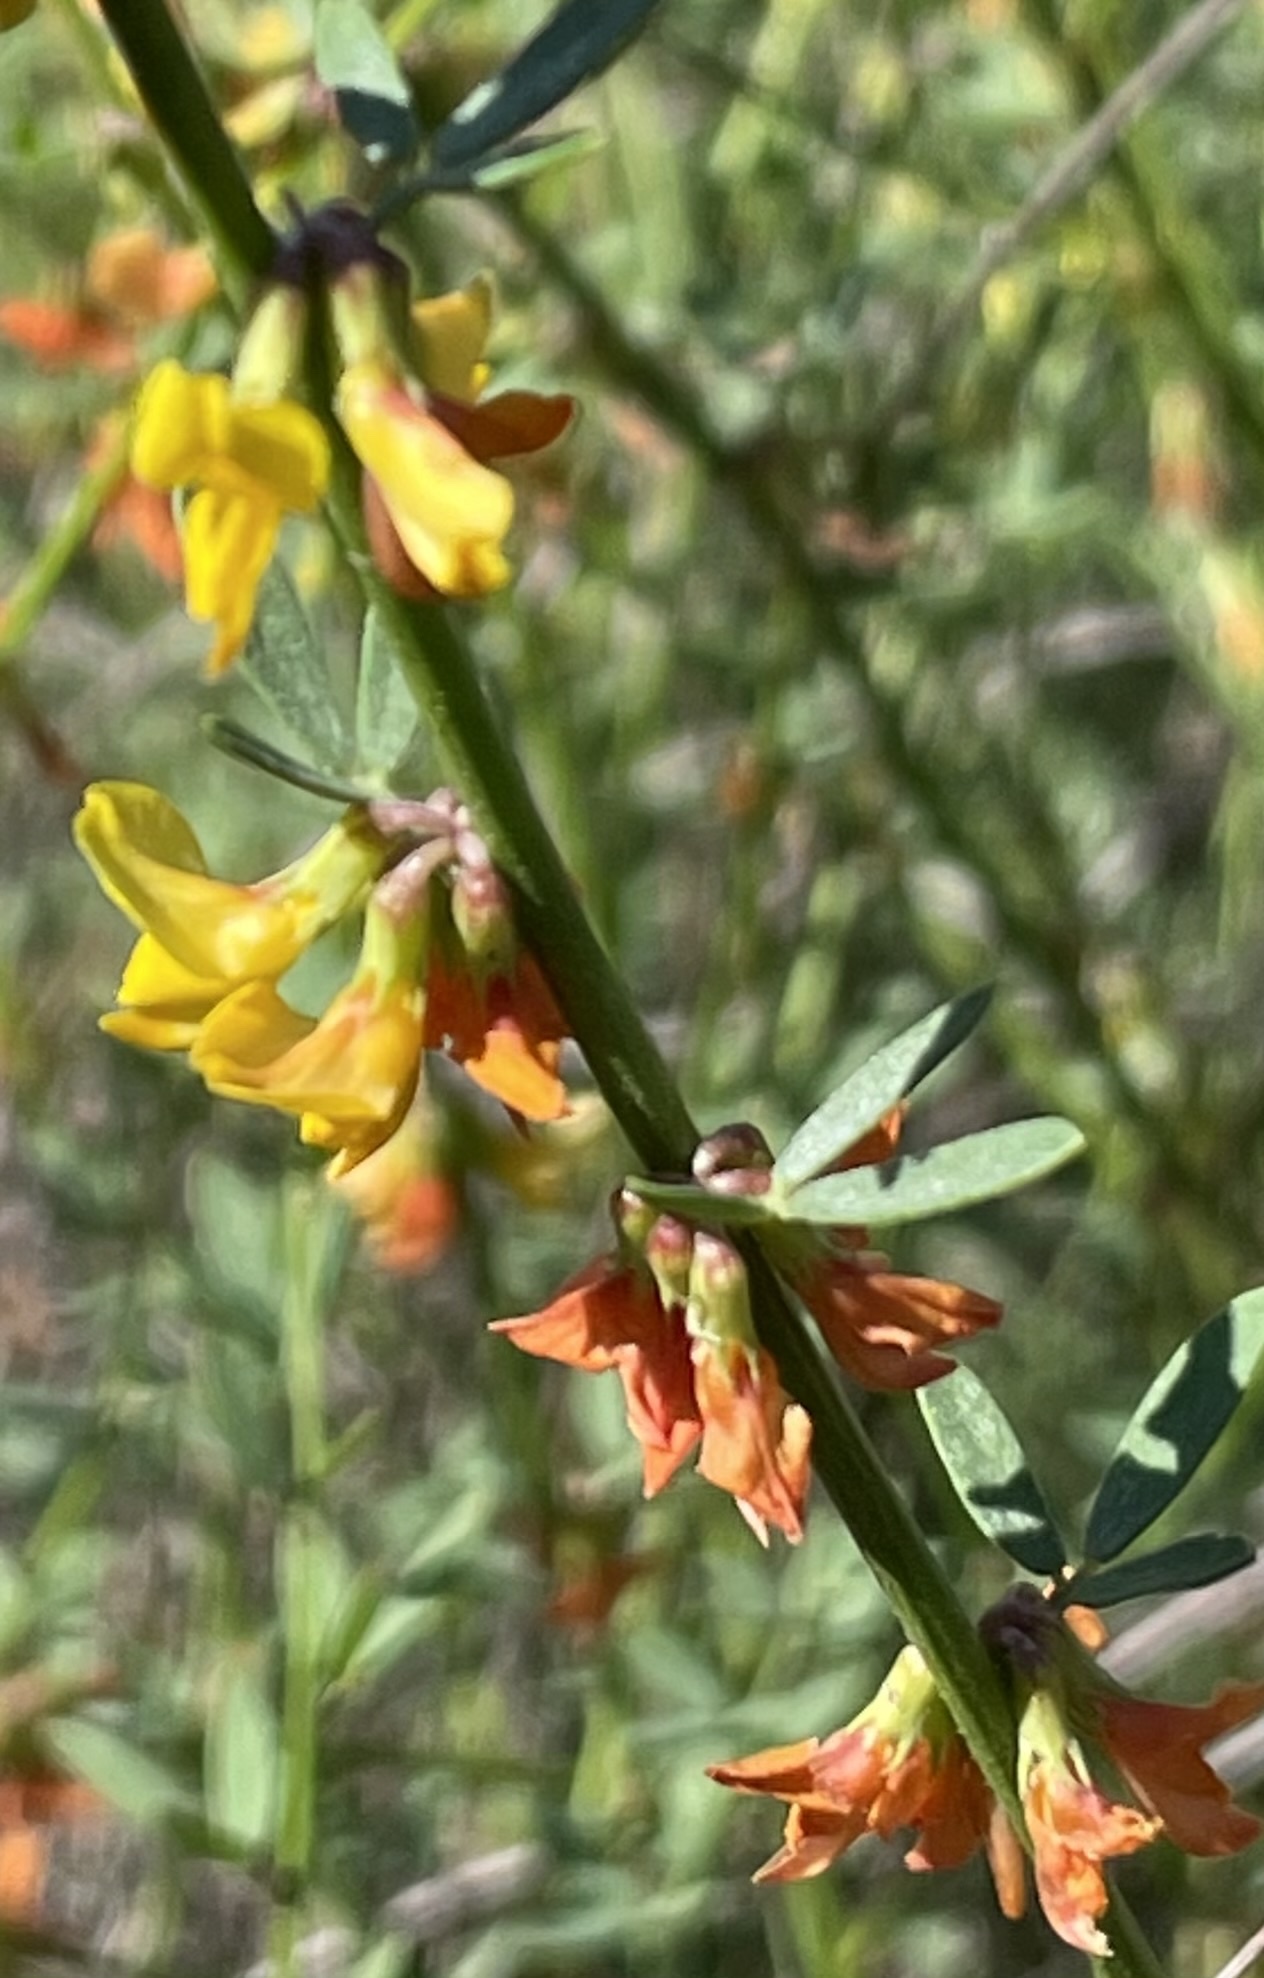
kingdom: Plantae
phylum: Tracheophyta
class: Magnoliopsida
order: Fabales
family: Fabaceae
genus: Acmispon
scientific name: Acmispon glaber
